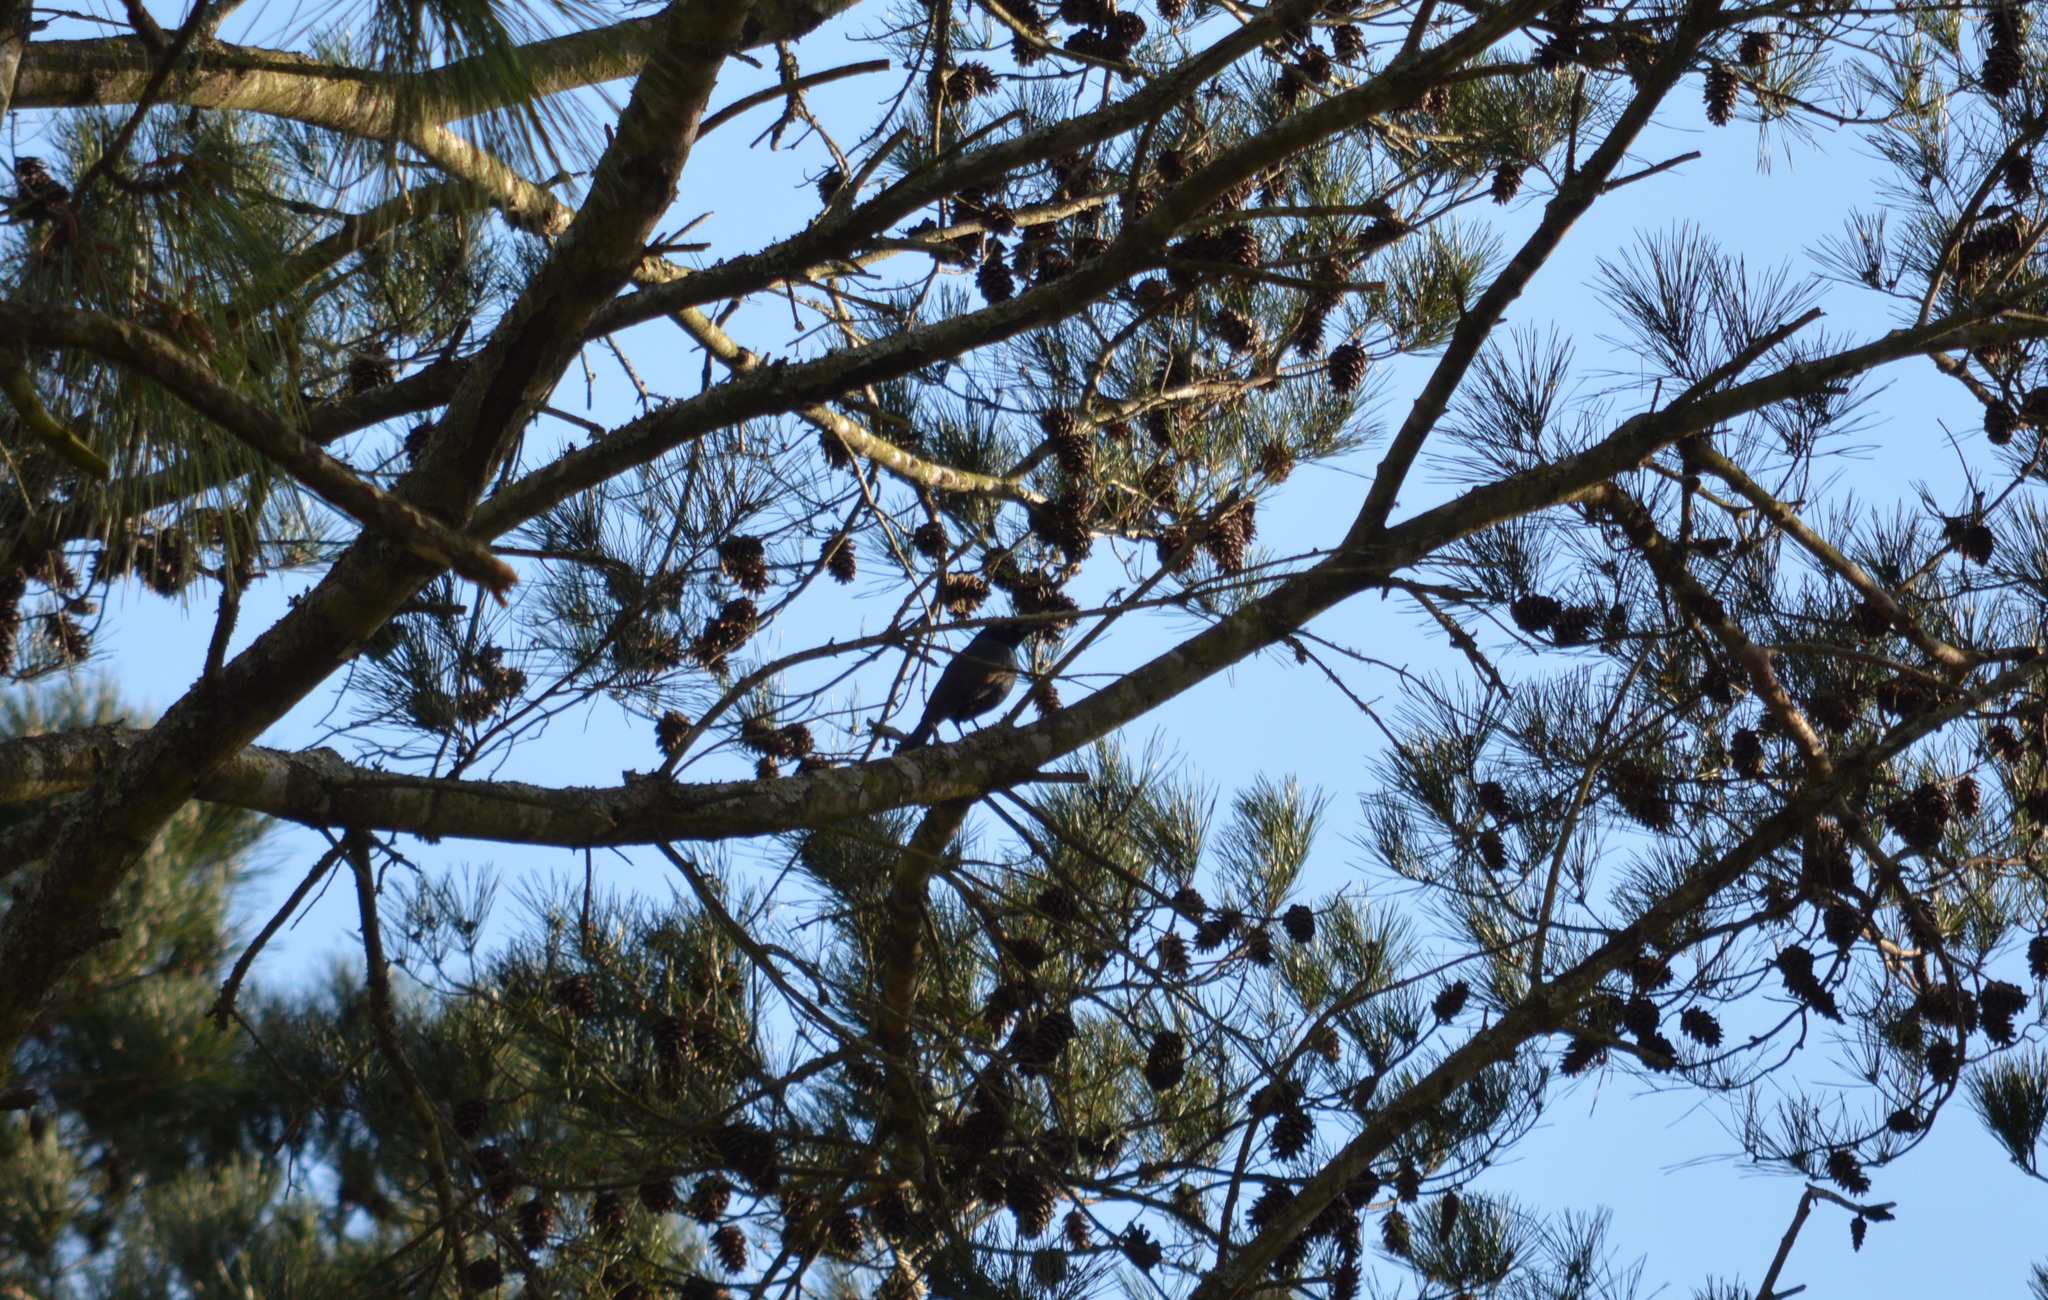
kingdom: Animalia
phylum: Chordata
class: Aves
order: Passeriformes
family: Icteridae
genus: Quiscalus
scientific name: Quiscalus quiscula
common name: Common grackle
